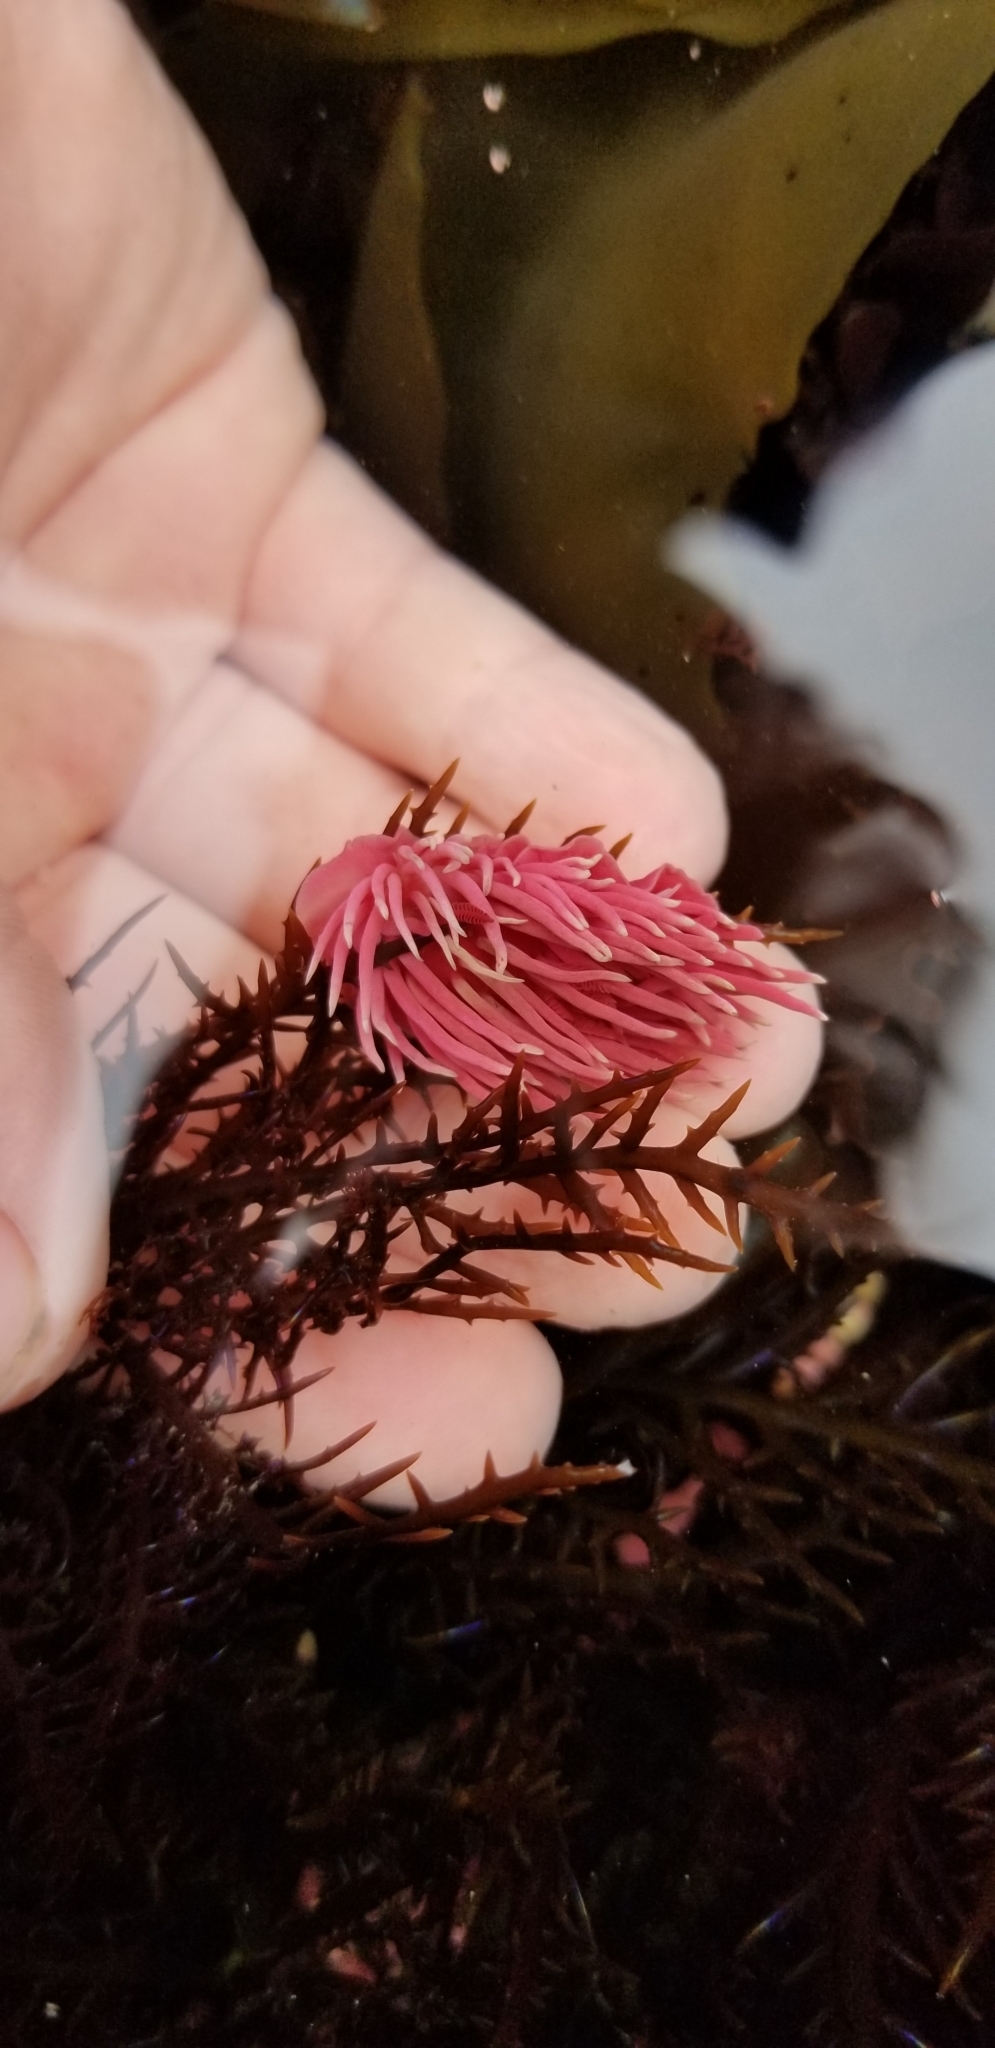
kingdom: Animalia
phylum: Mollusca
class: Gastropoda
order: Nudibranchia
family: Goniodorididae
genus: Okenia
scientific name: Okenia
